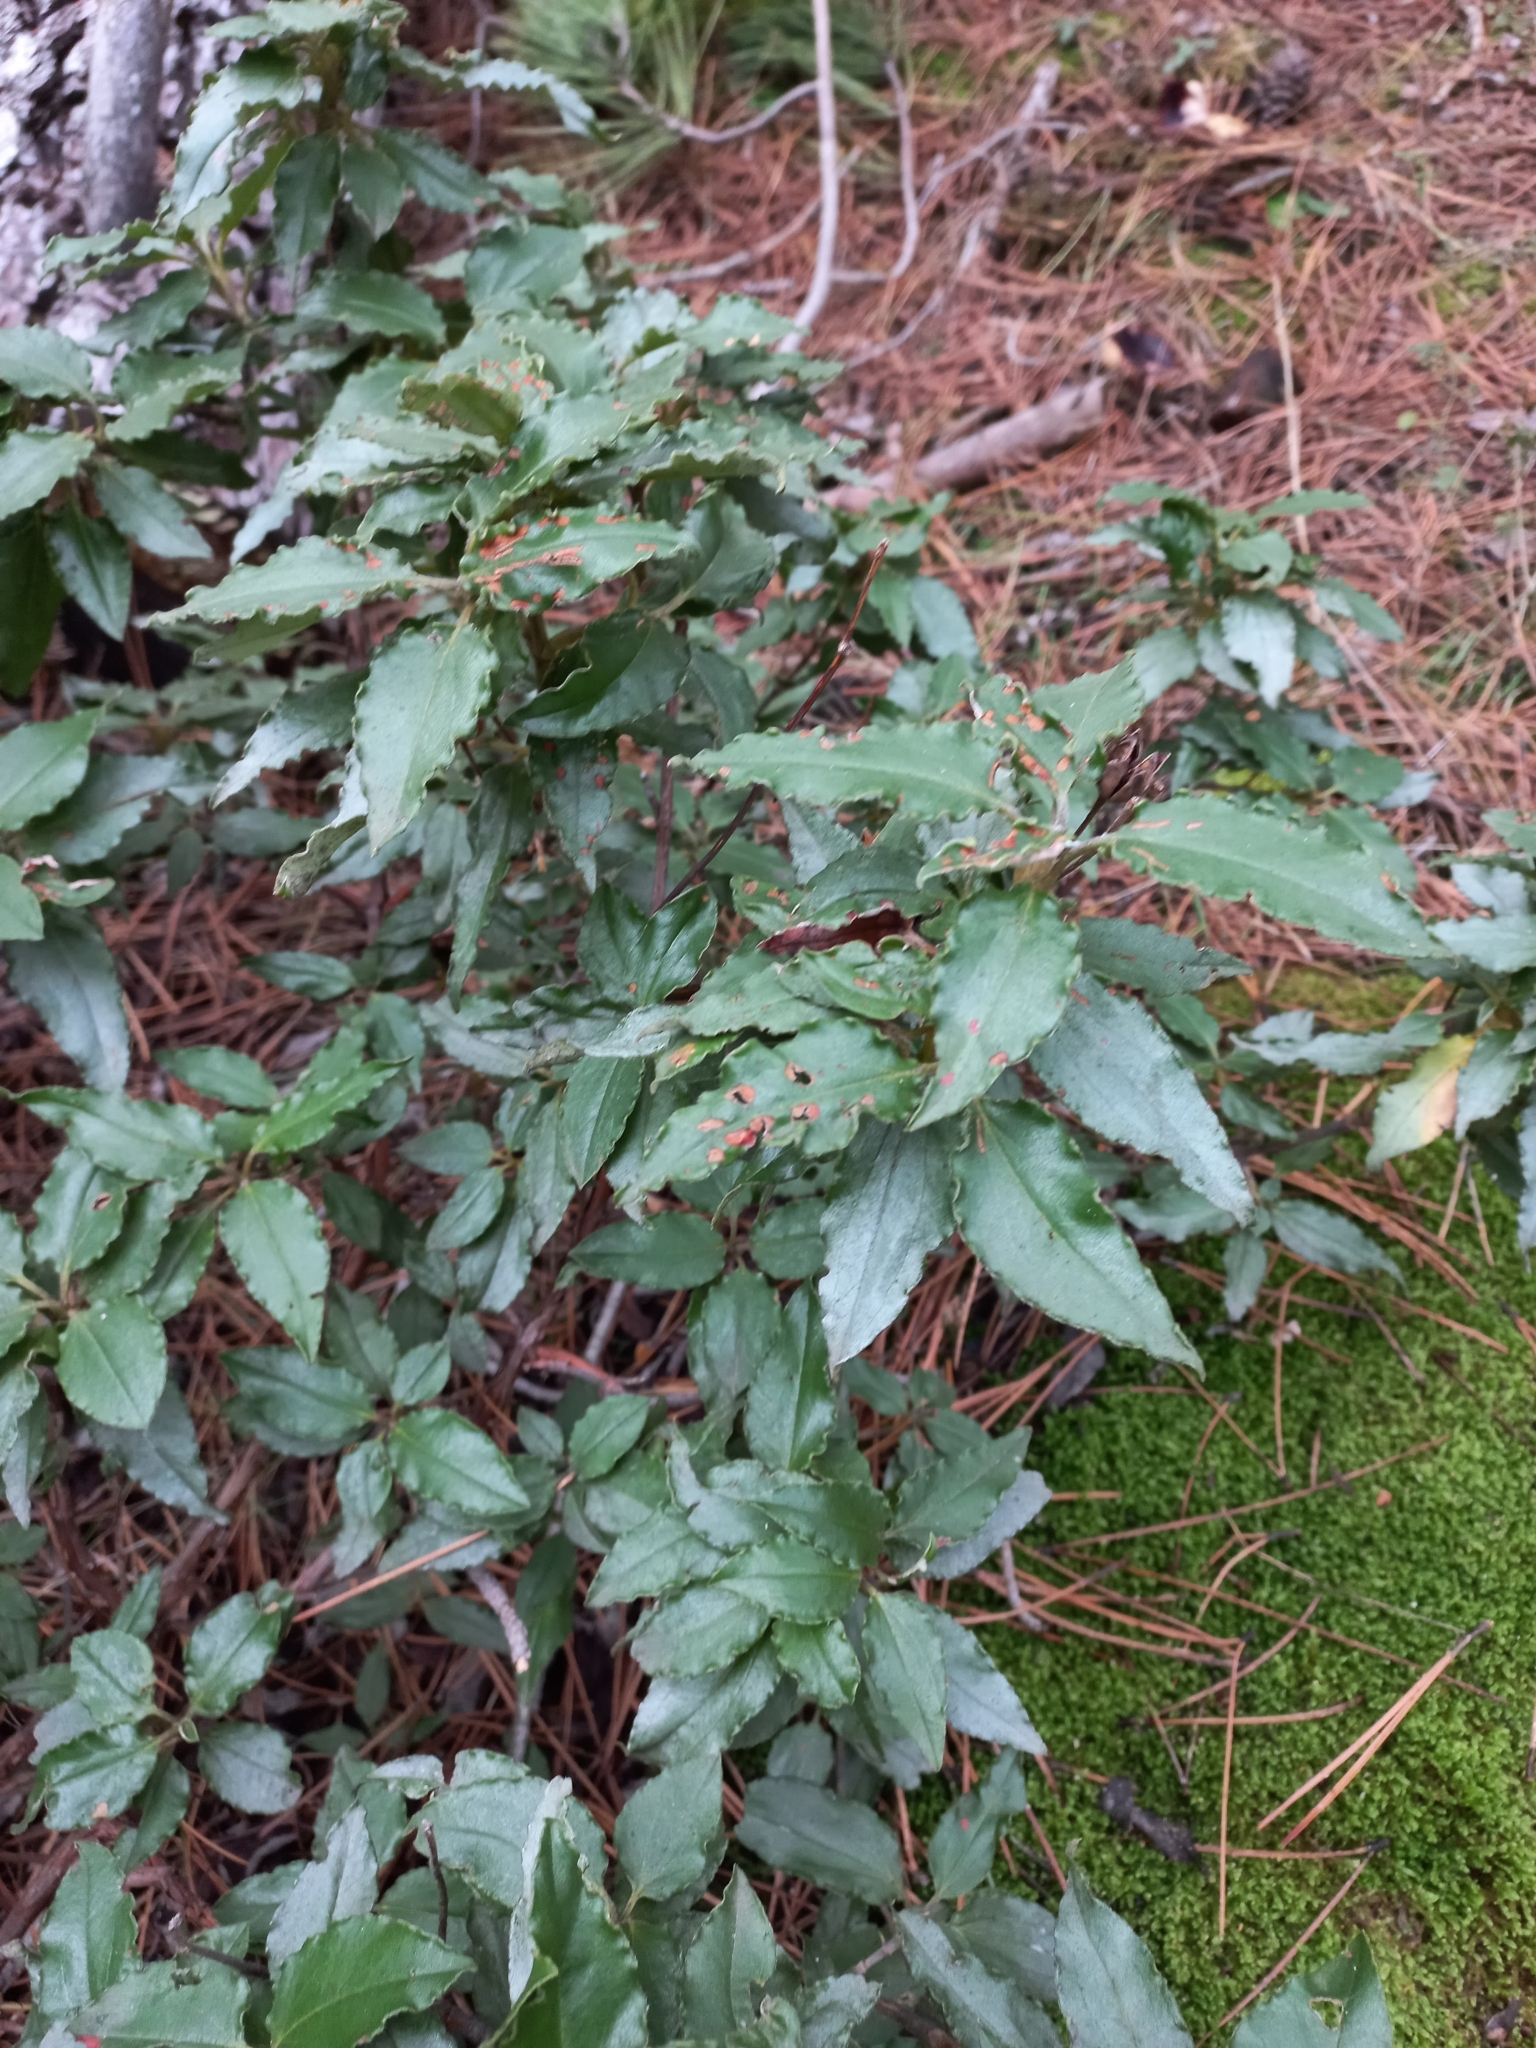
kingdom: Plantae
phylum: Tracheophyta
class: Magnoliopsida
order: Malvales
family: Cistaceae
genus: Cistus
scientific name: Cistus laurifolius
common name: Laurel-leaved cistus
